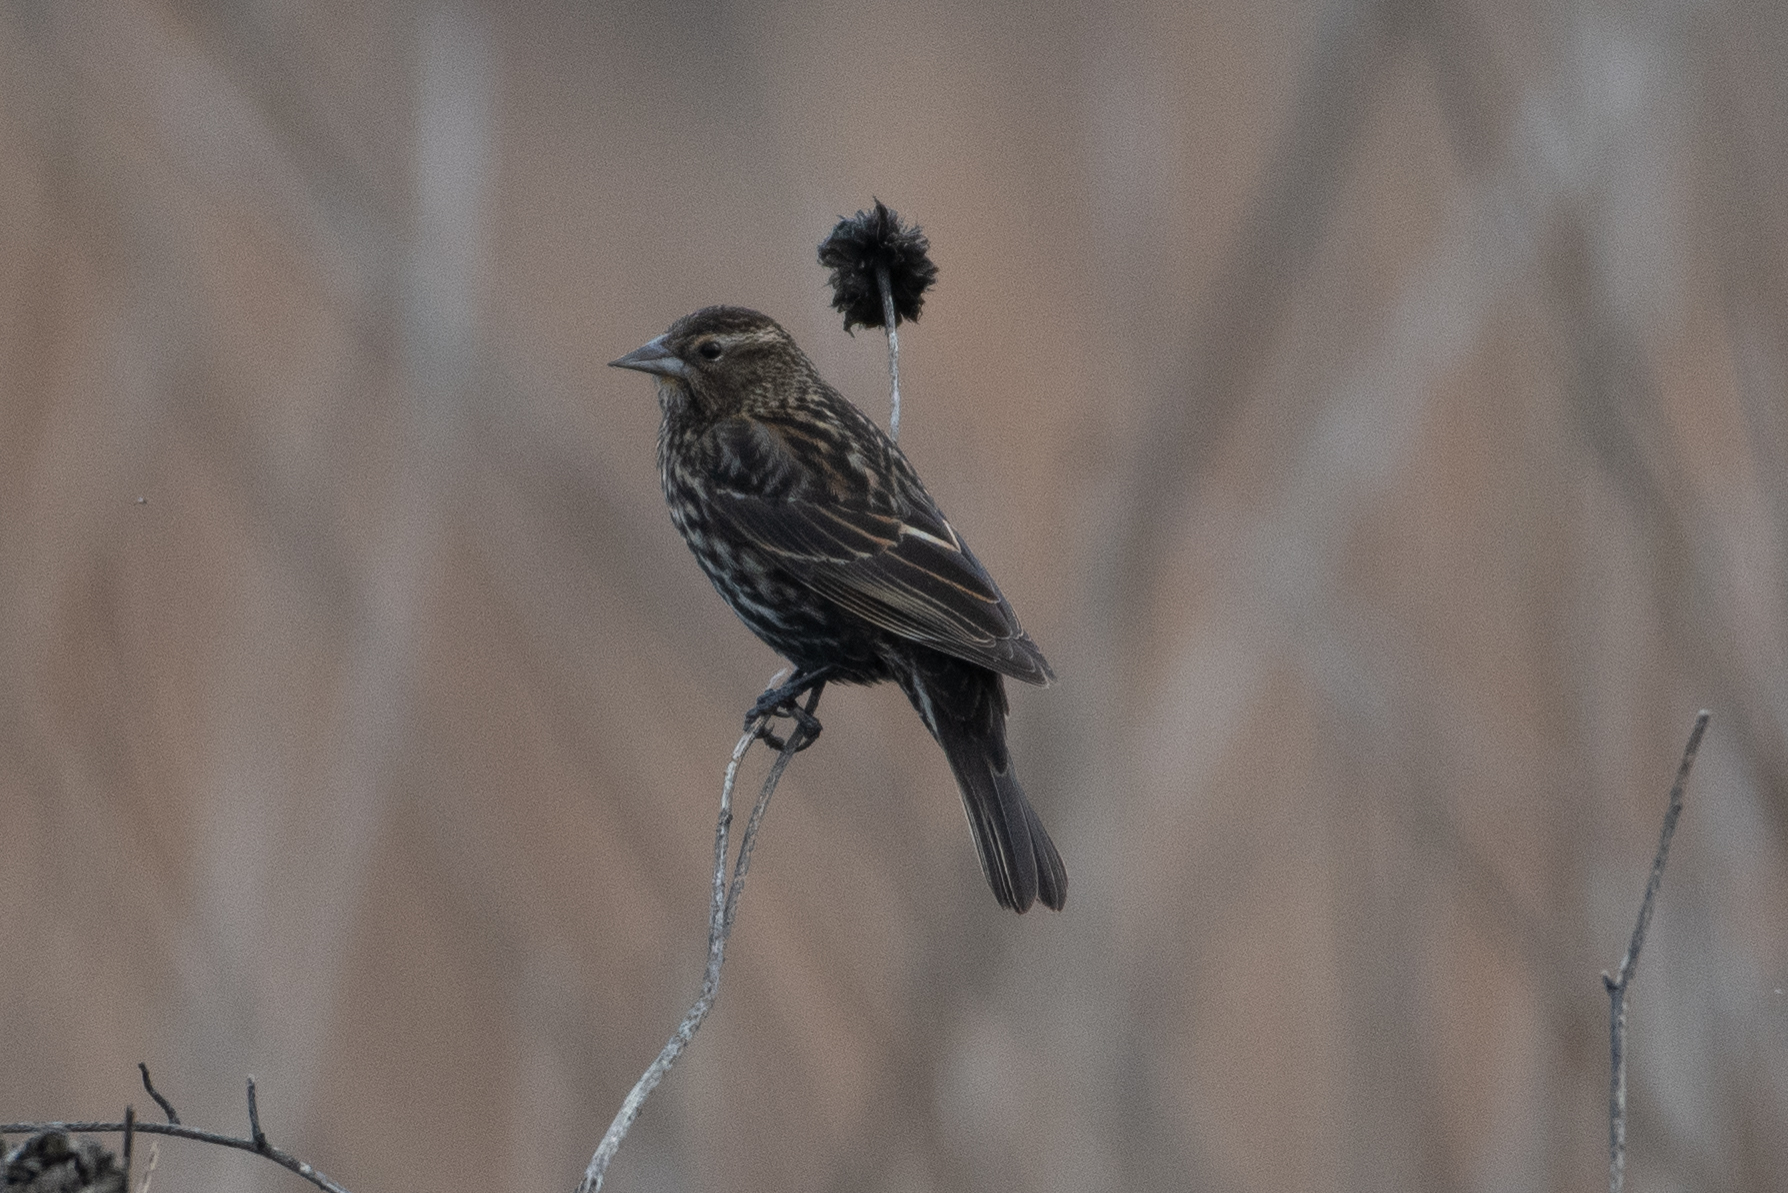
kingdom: Animalia
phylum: Chordata
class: Aves
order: Passeriformes
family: Icteridae
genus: Agelaius
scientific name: Agelaius phoeniceus
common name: Red-winged blackbird
